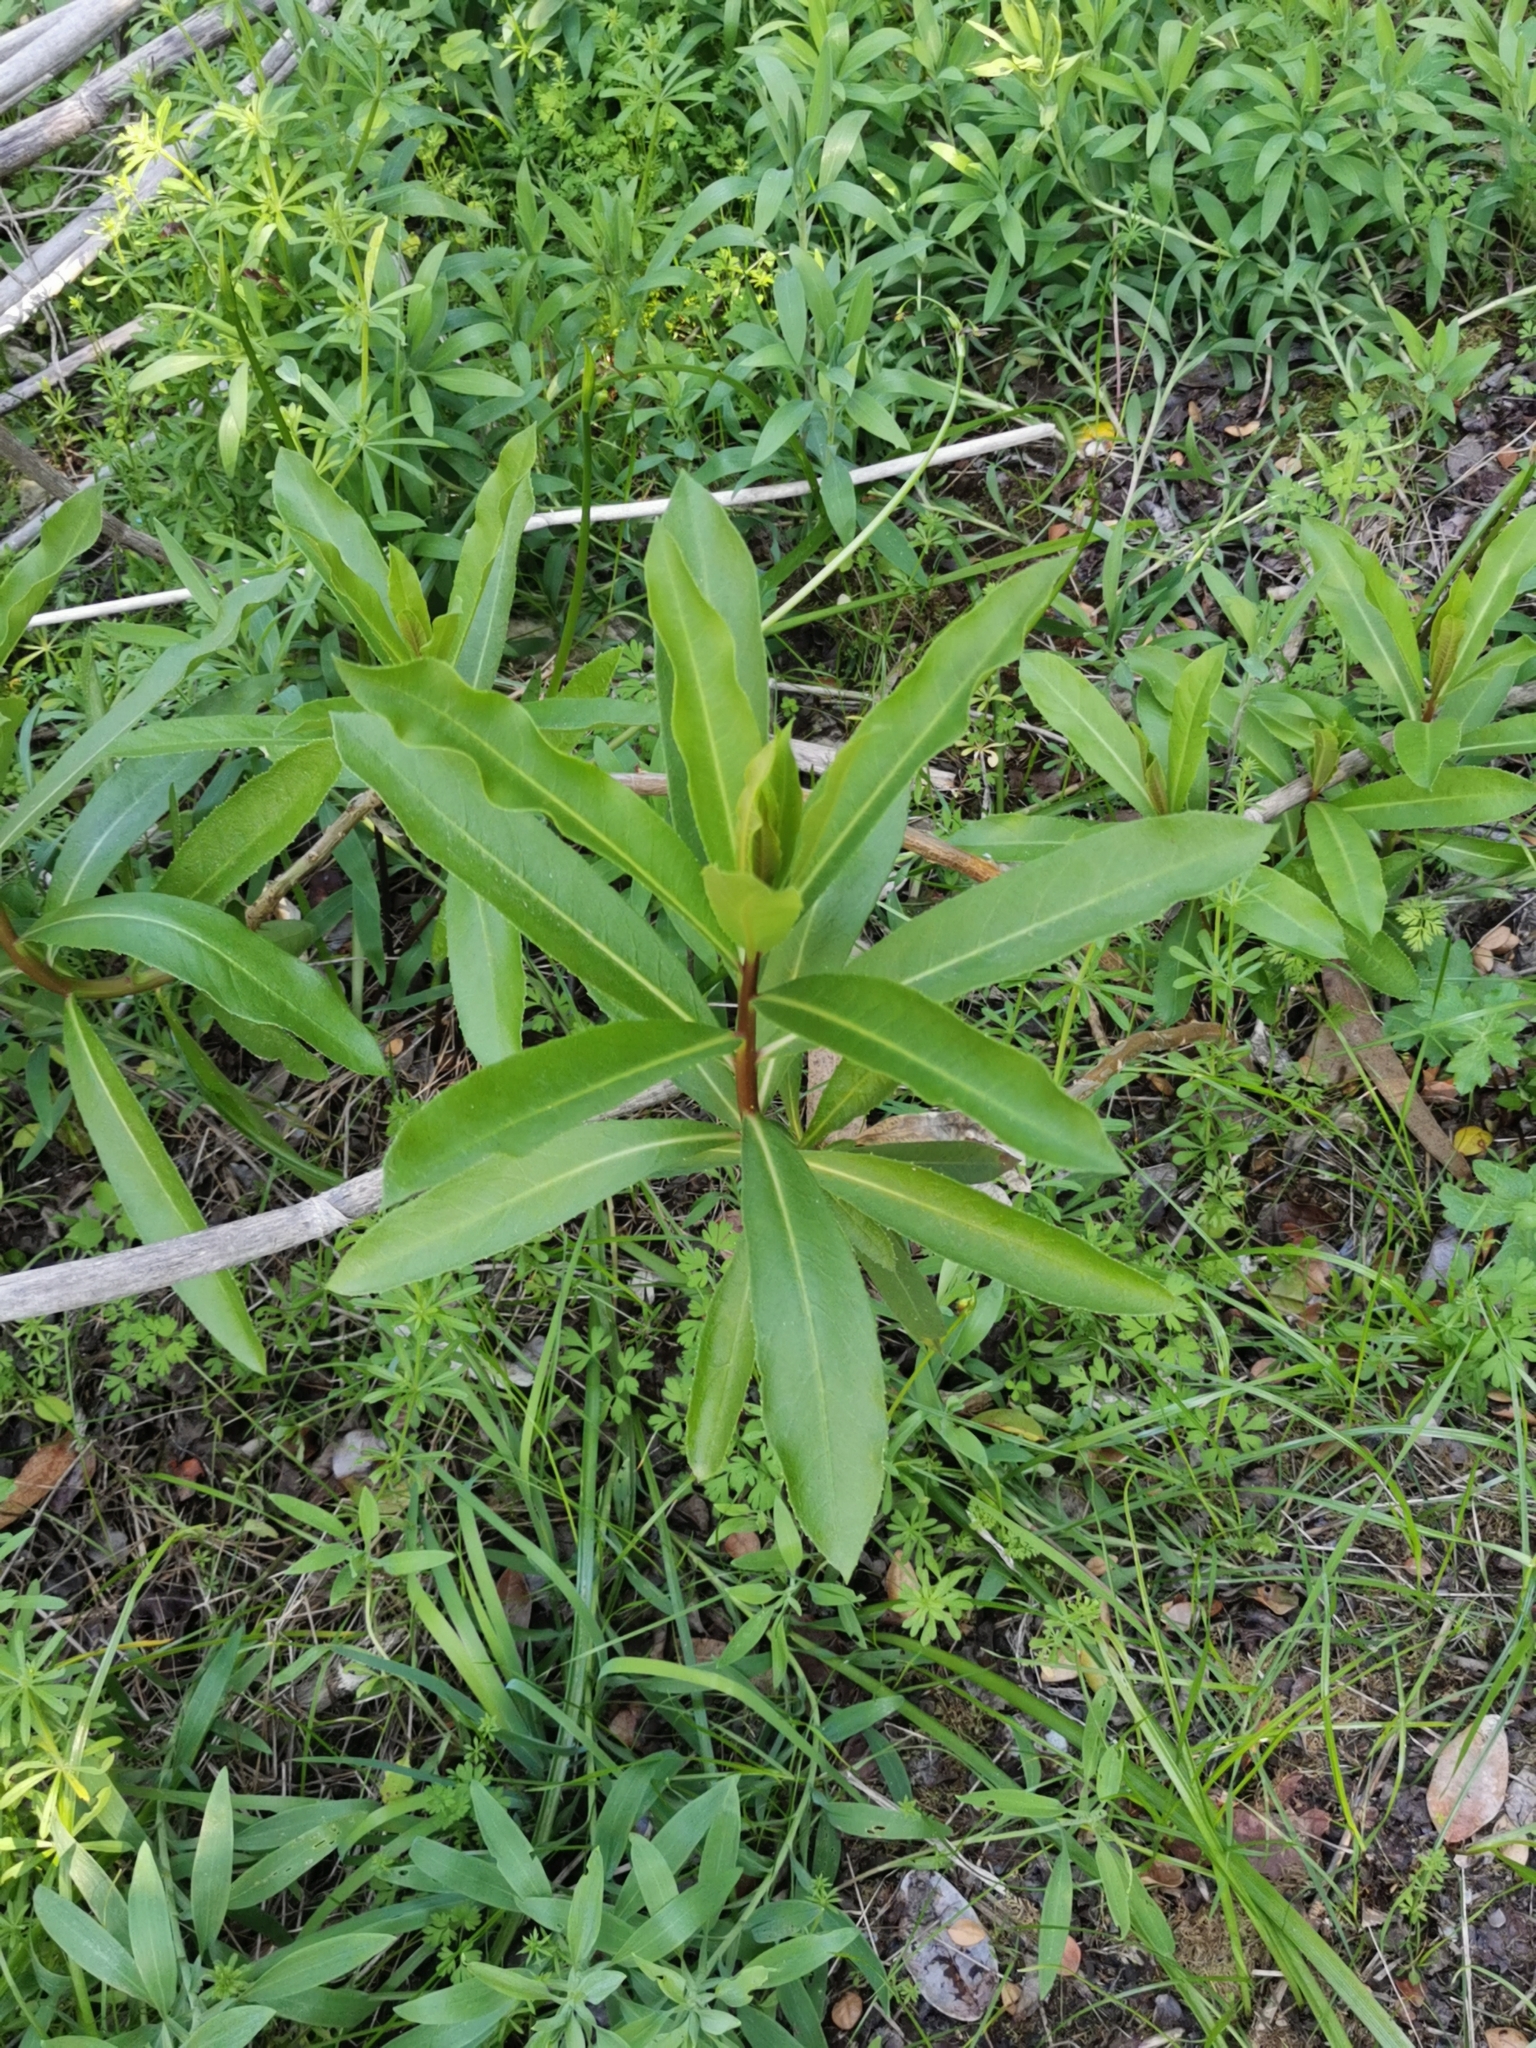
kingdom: Plantae
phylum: Tracheophyta
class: Magnoliopsida
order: Asterales
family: Campanulaceae
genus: Lobelia
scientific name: Lobelia excelsa
